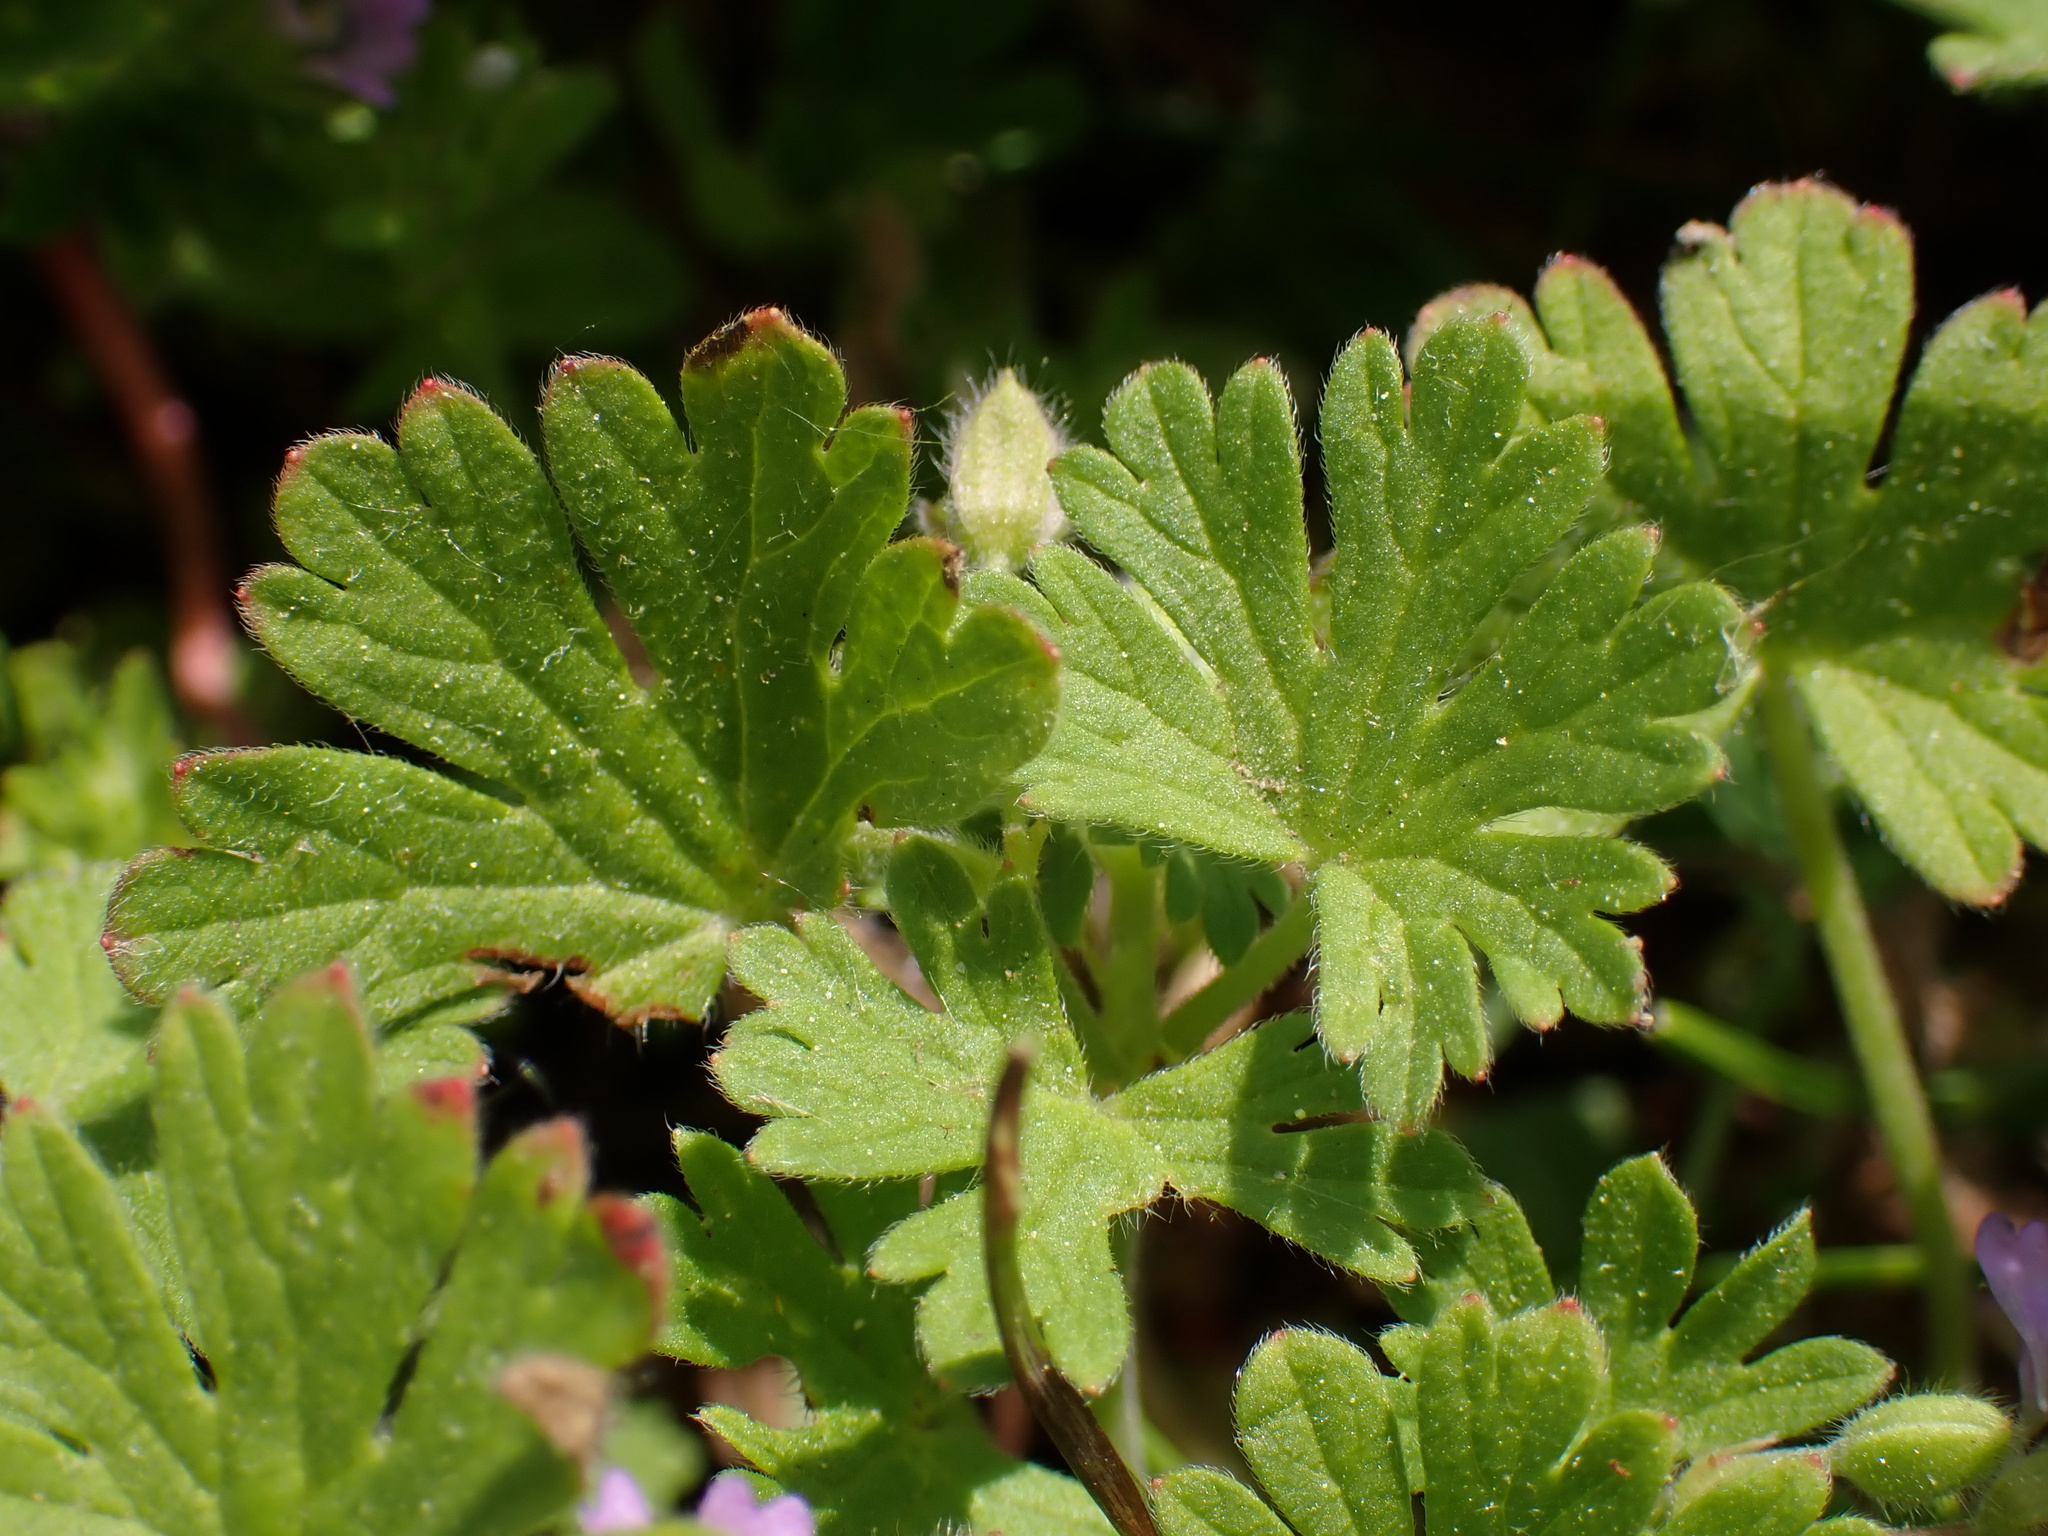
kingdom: Plantae
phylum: Tracheophyta
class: Magnoliopsida
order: Geraniales
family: Geraniaceae
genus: Geranium
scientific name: Geranium pusillum
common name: Small geranium
